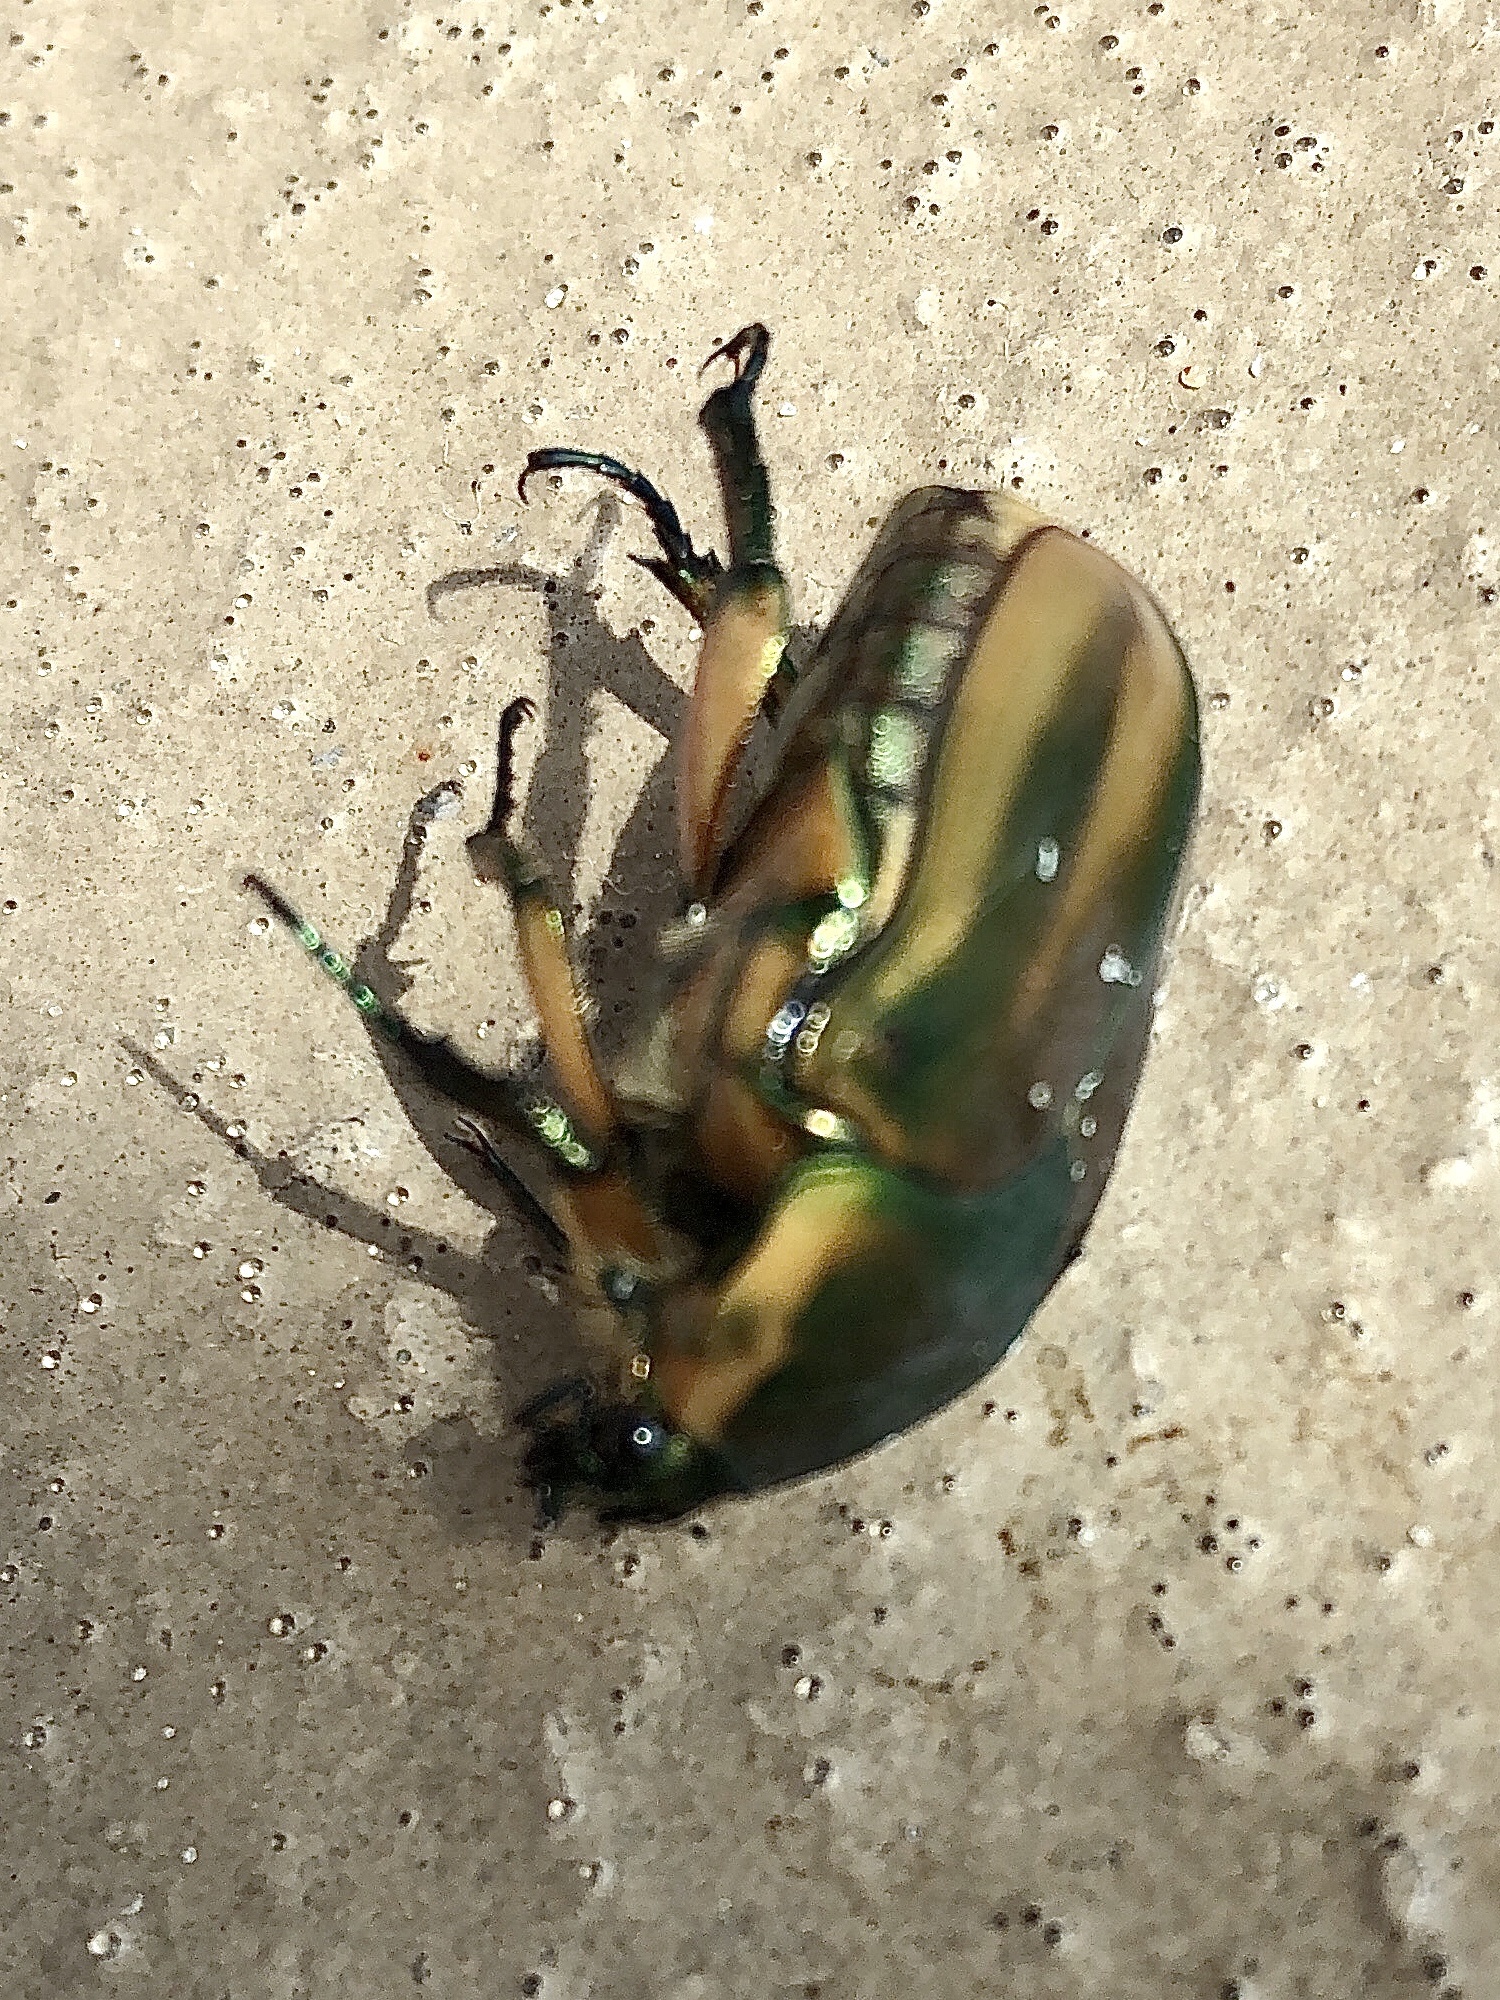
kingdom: Animalia
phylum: Arthropoda
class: Insecta
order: Coleoptera
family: Scarabaeidae
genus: Cotinis
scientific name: Cotinis nitida
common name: Common green june beetle
